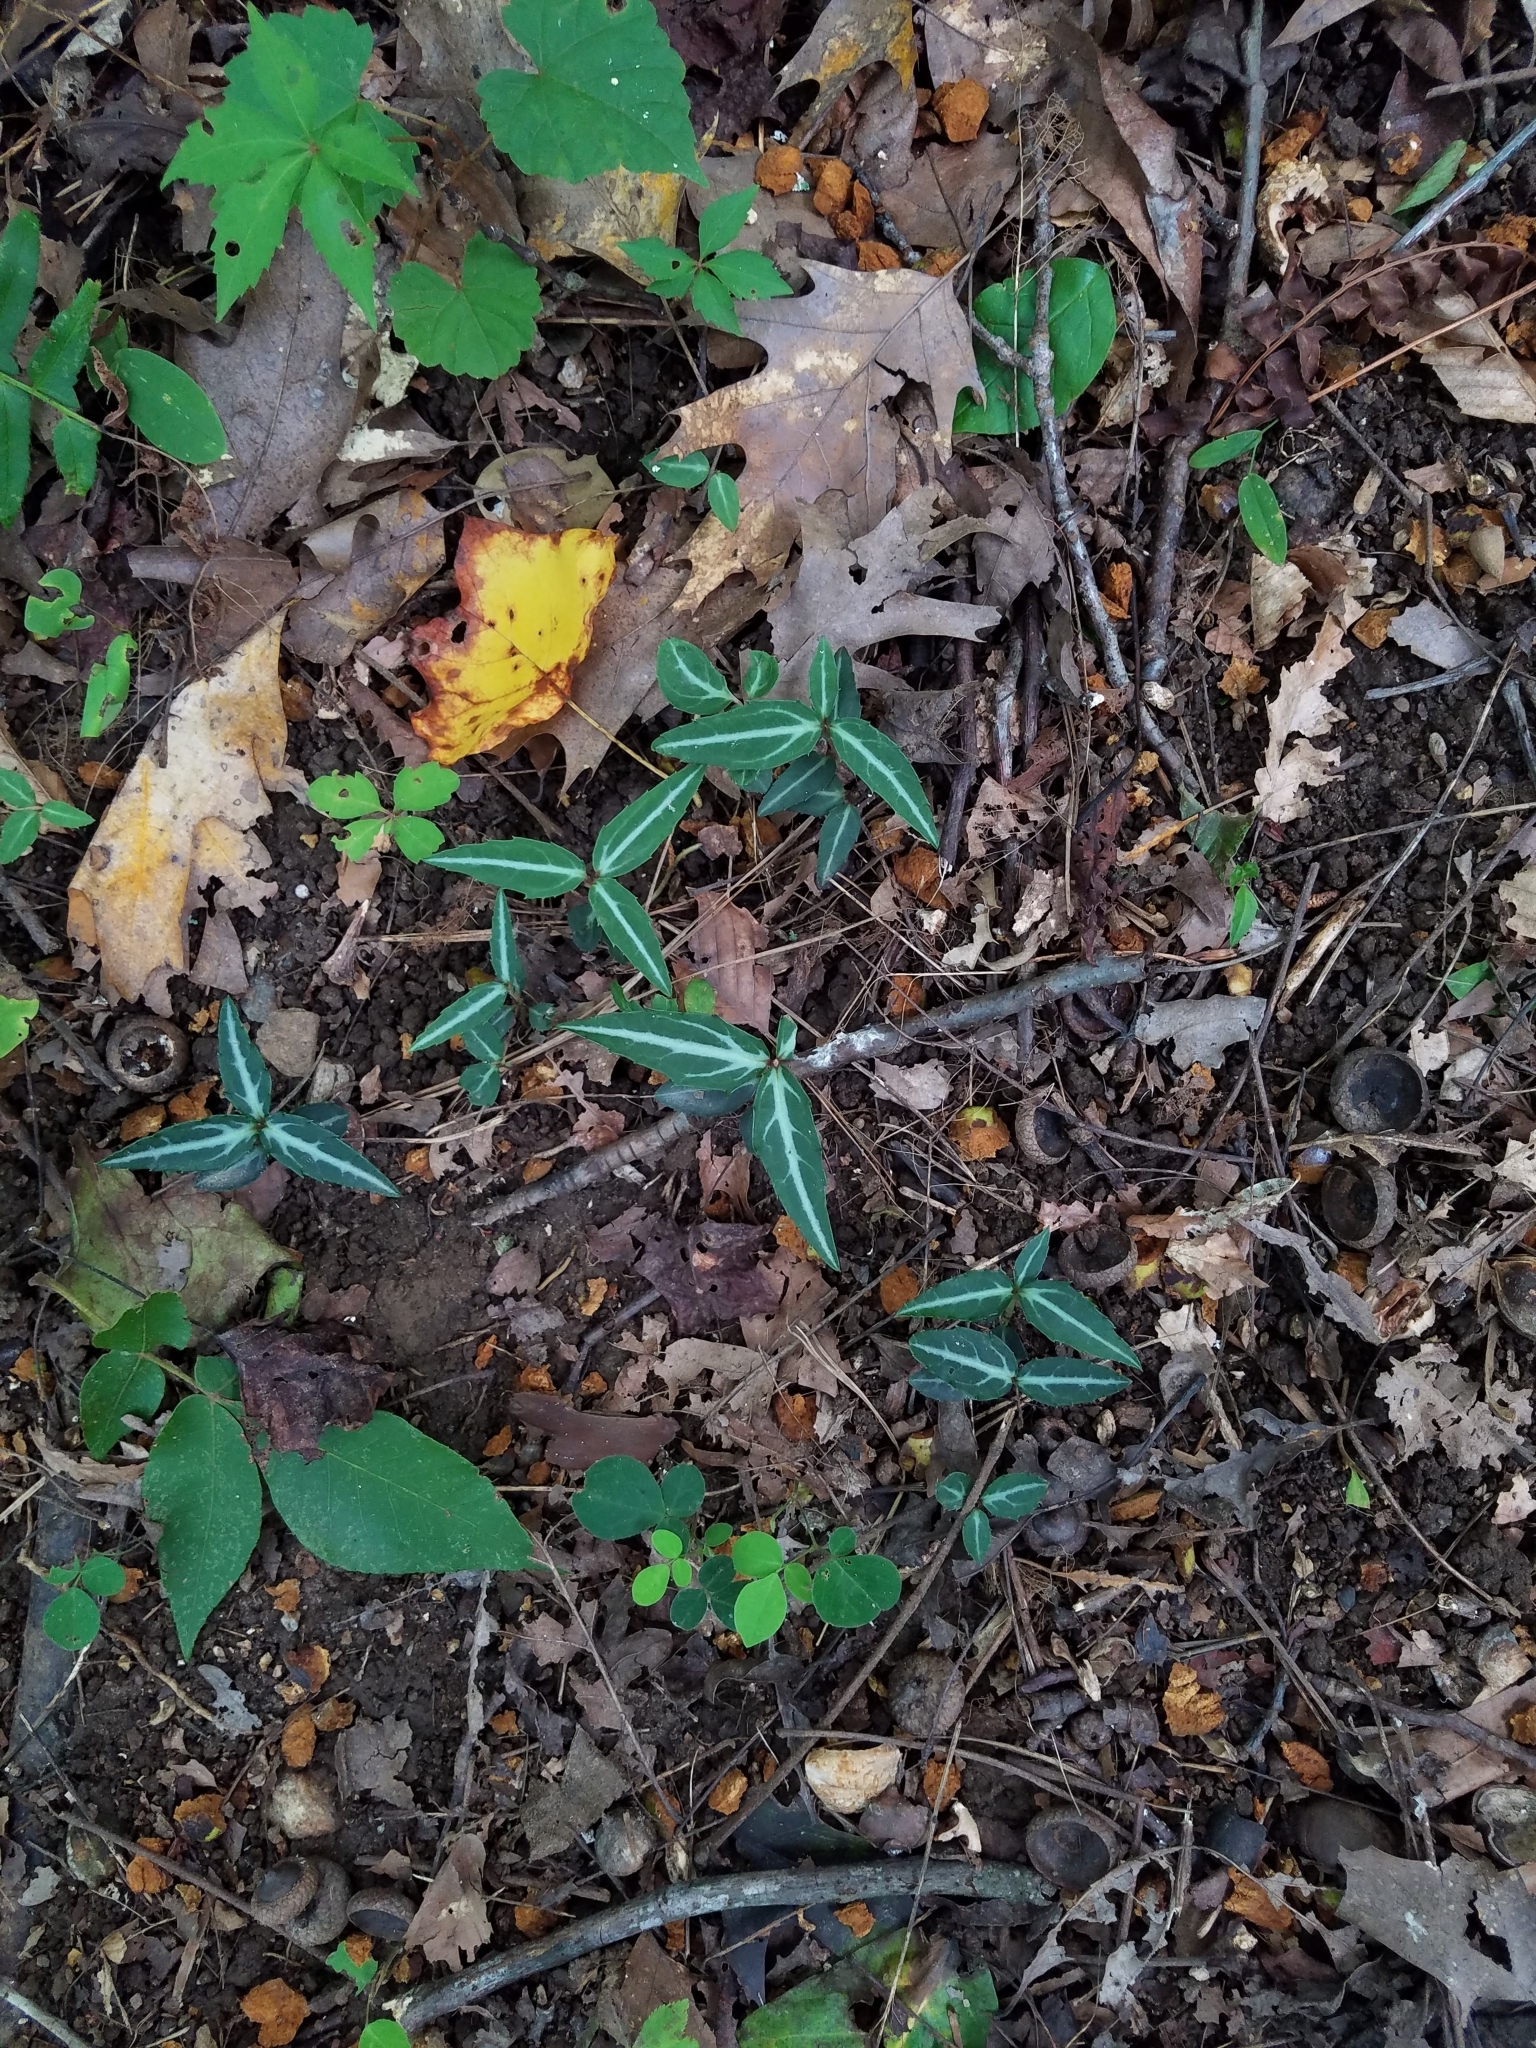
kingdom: Plantae
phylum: Tracheophyta
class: Magnoliopsida
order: Ericales
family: Ericaceae
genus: Chimaphila
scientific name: Chimaphila maculata
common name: Spotted pipsissewa
